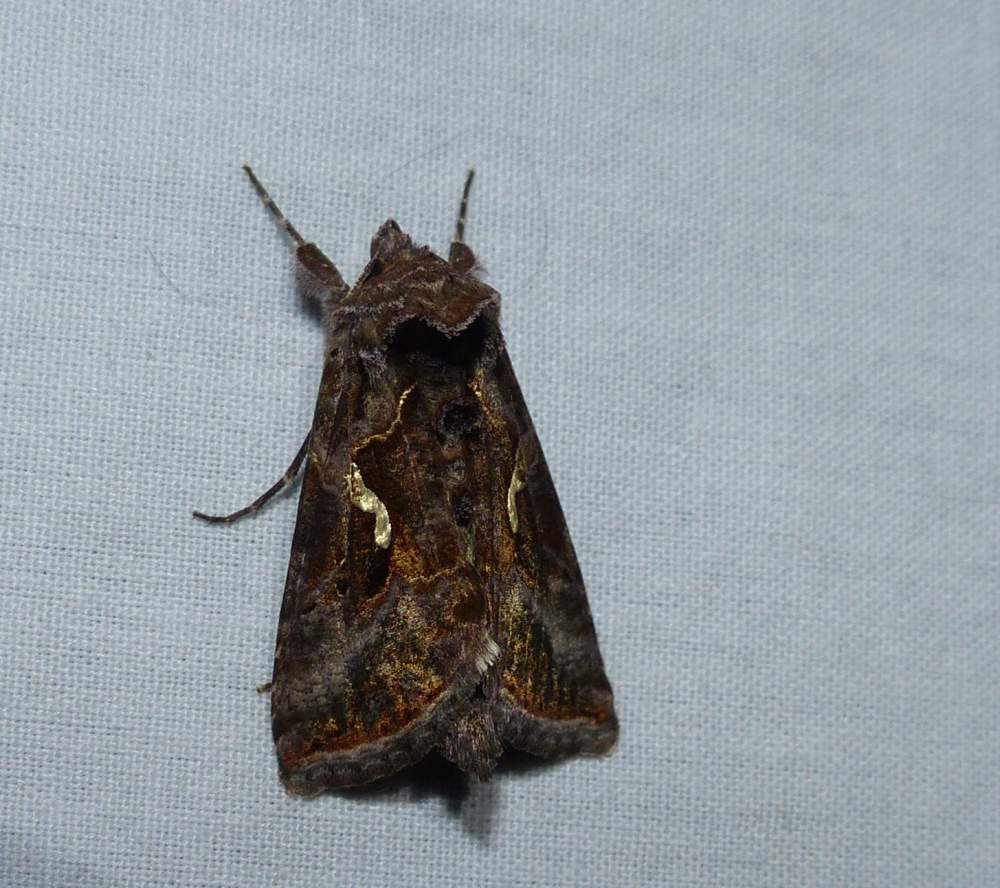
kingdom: Animalia
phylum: Arthropoda
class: Insecta
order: Lepidoptera
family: Noctuidae
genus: Autographa
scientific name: Autographa precationis
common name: Common looper moth
